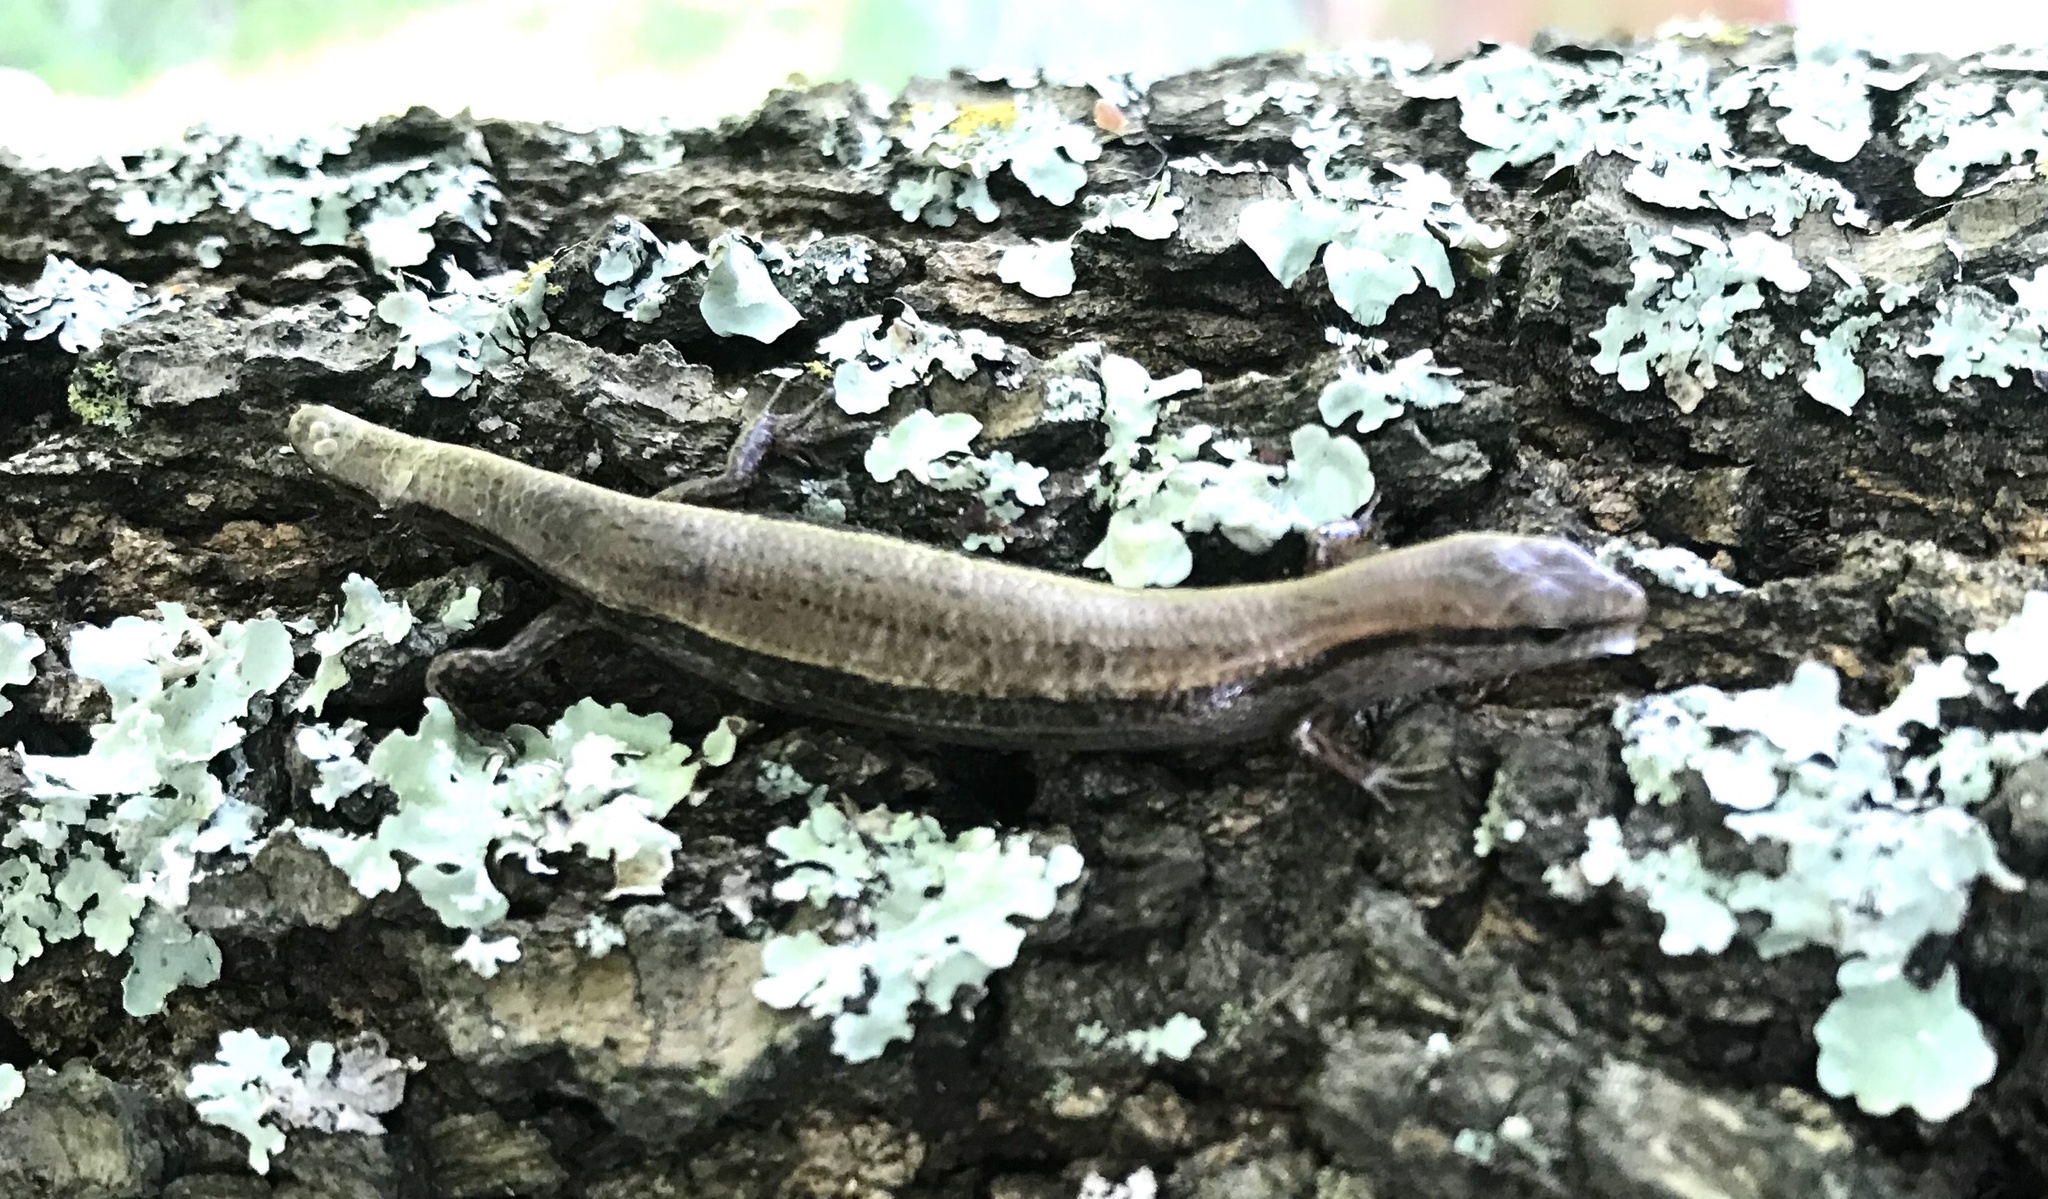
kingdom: Animalia
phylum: Chordata
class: Squamata
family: Scincidae
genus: Scincella
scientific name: Scincella lateralis
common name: Ground skink
